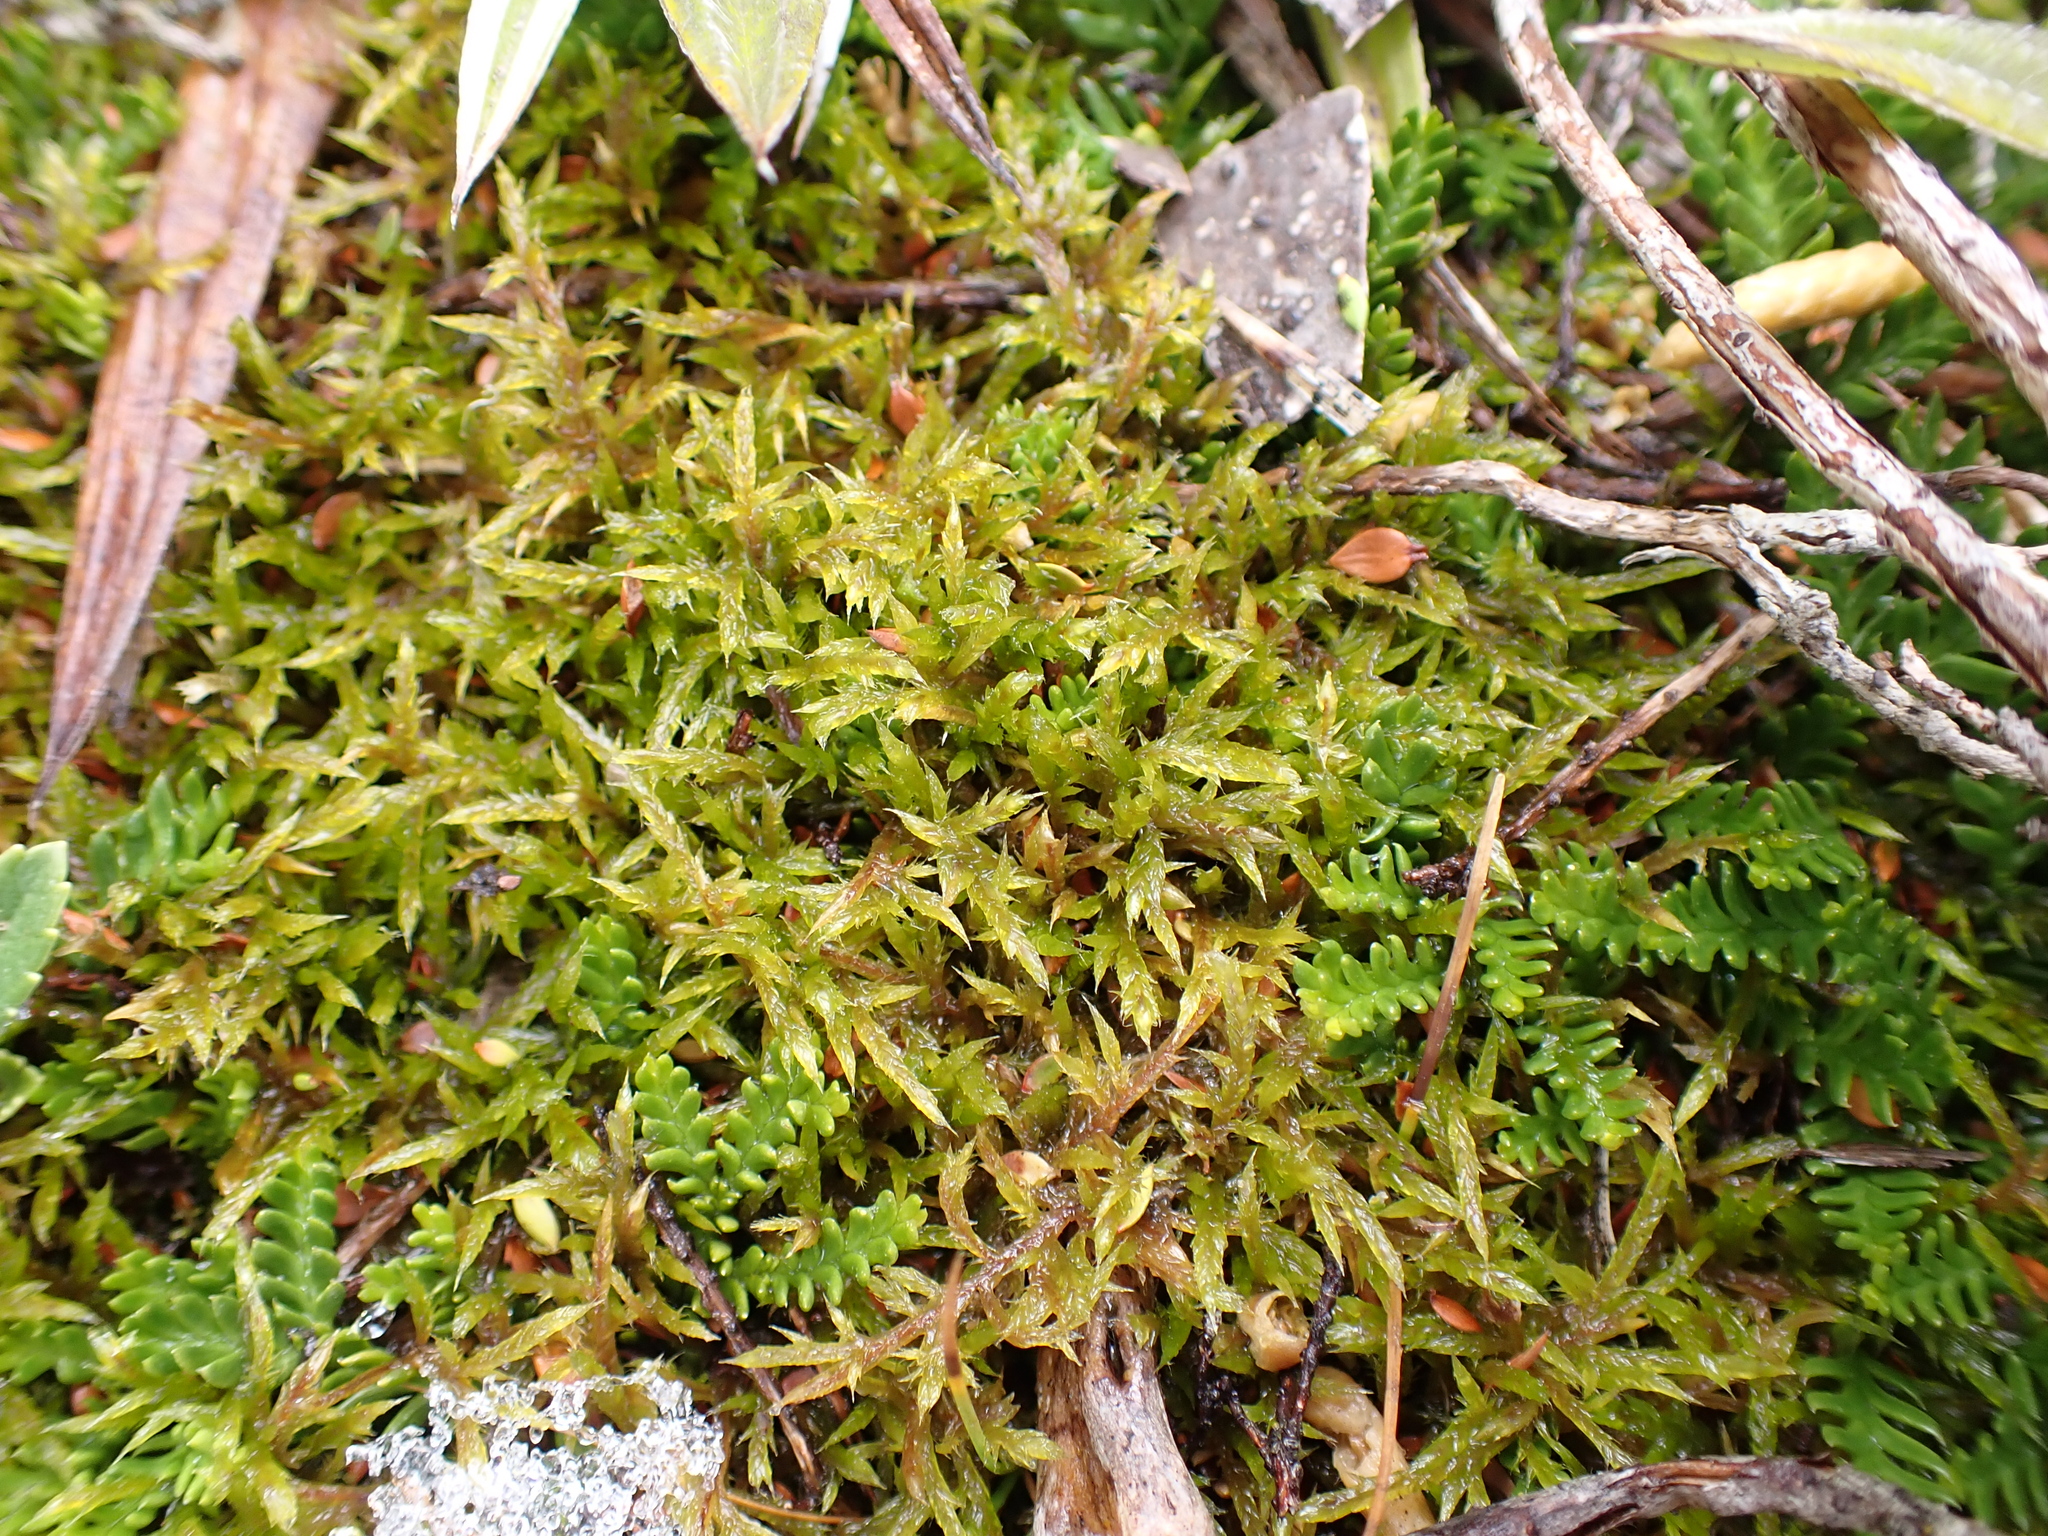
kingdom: Plantae
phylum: Bryophyta
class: Bryopsida
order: Hypnales
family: Pylaisiadelphaceae
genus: Wijkia
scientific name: Wijkia extenuata
